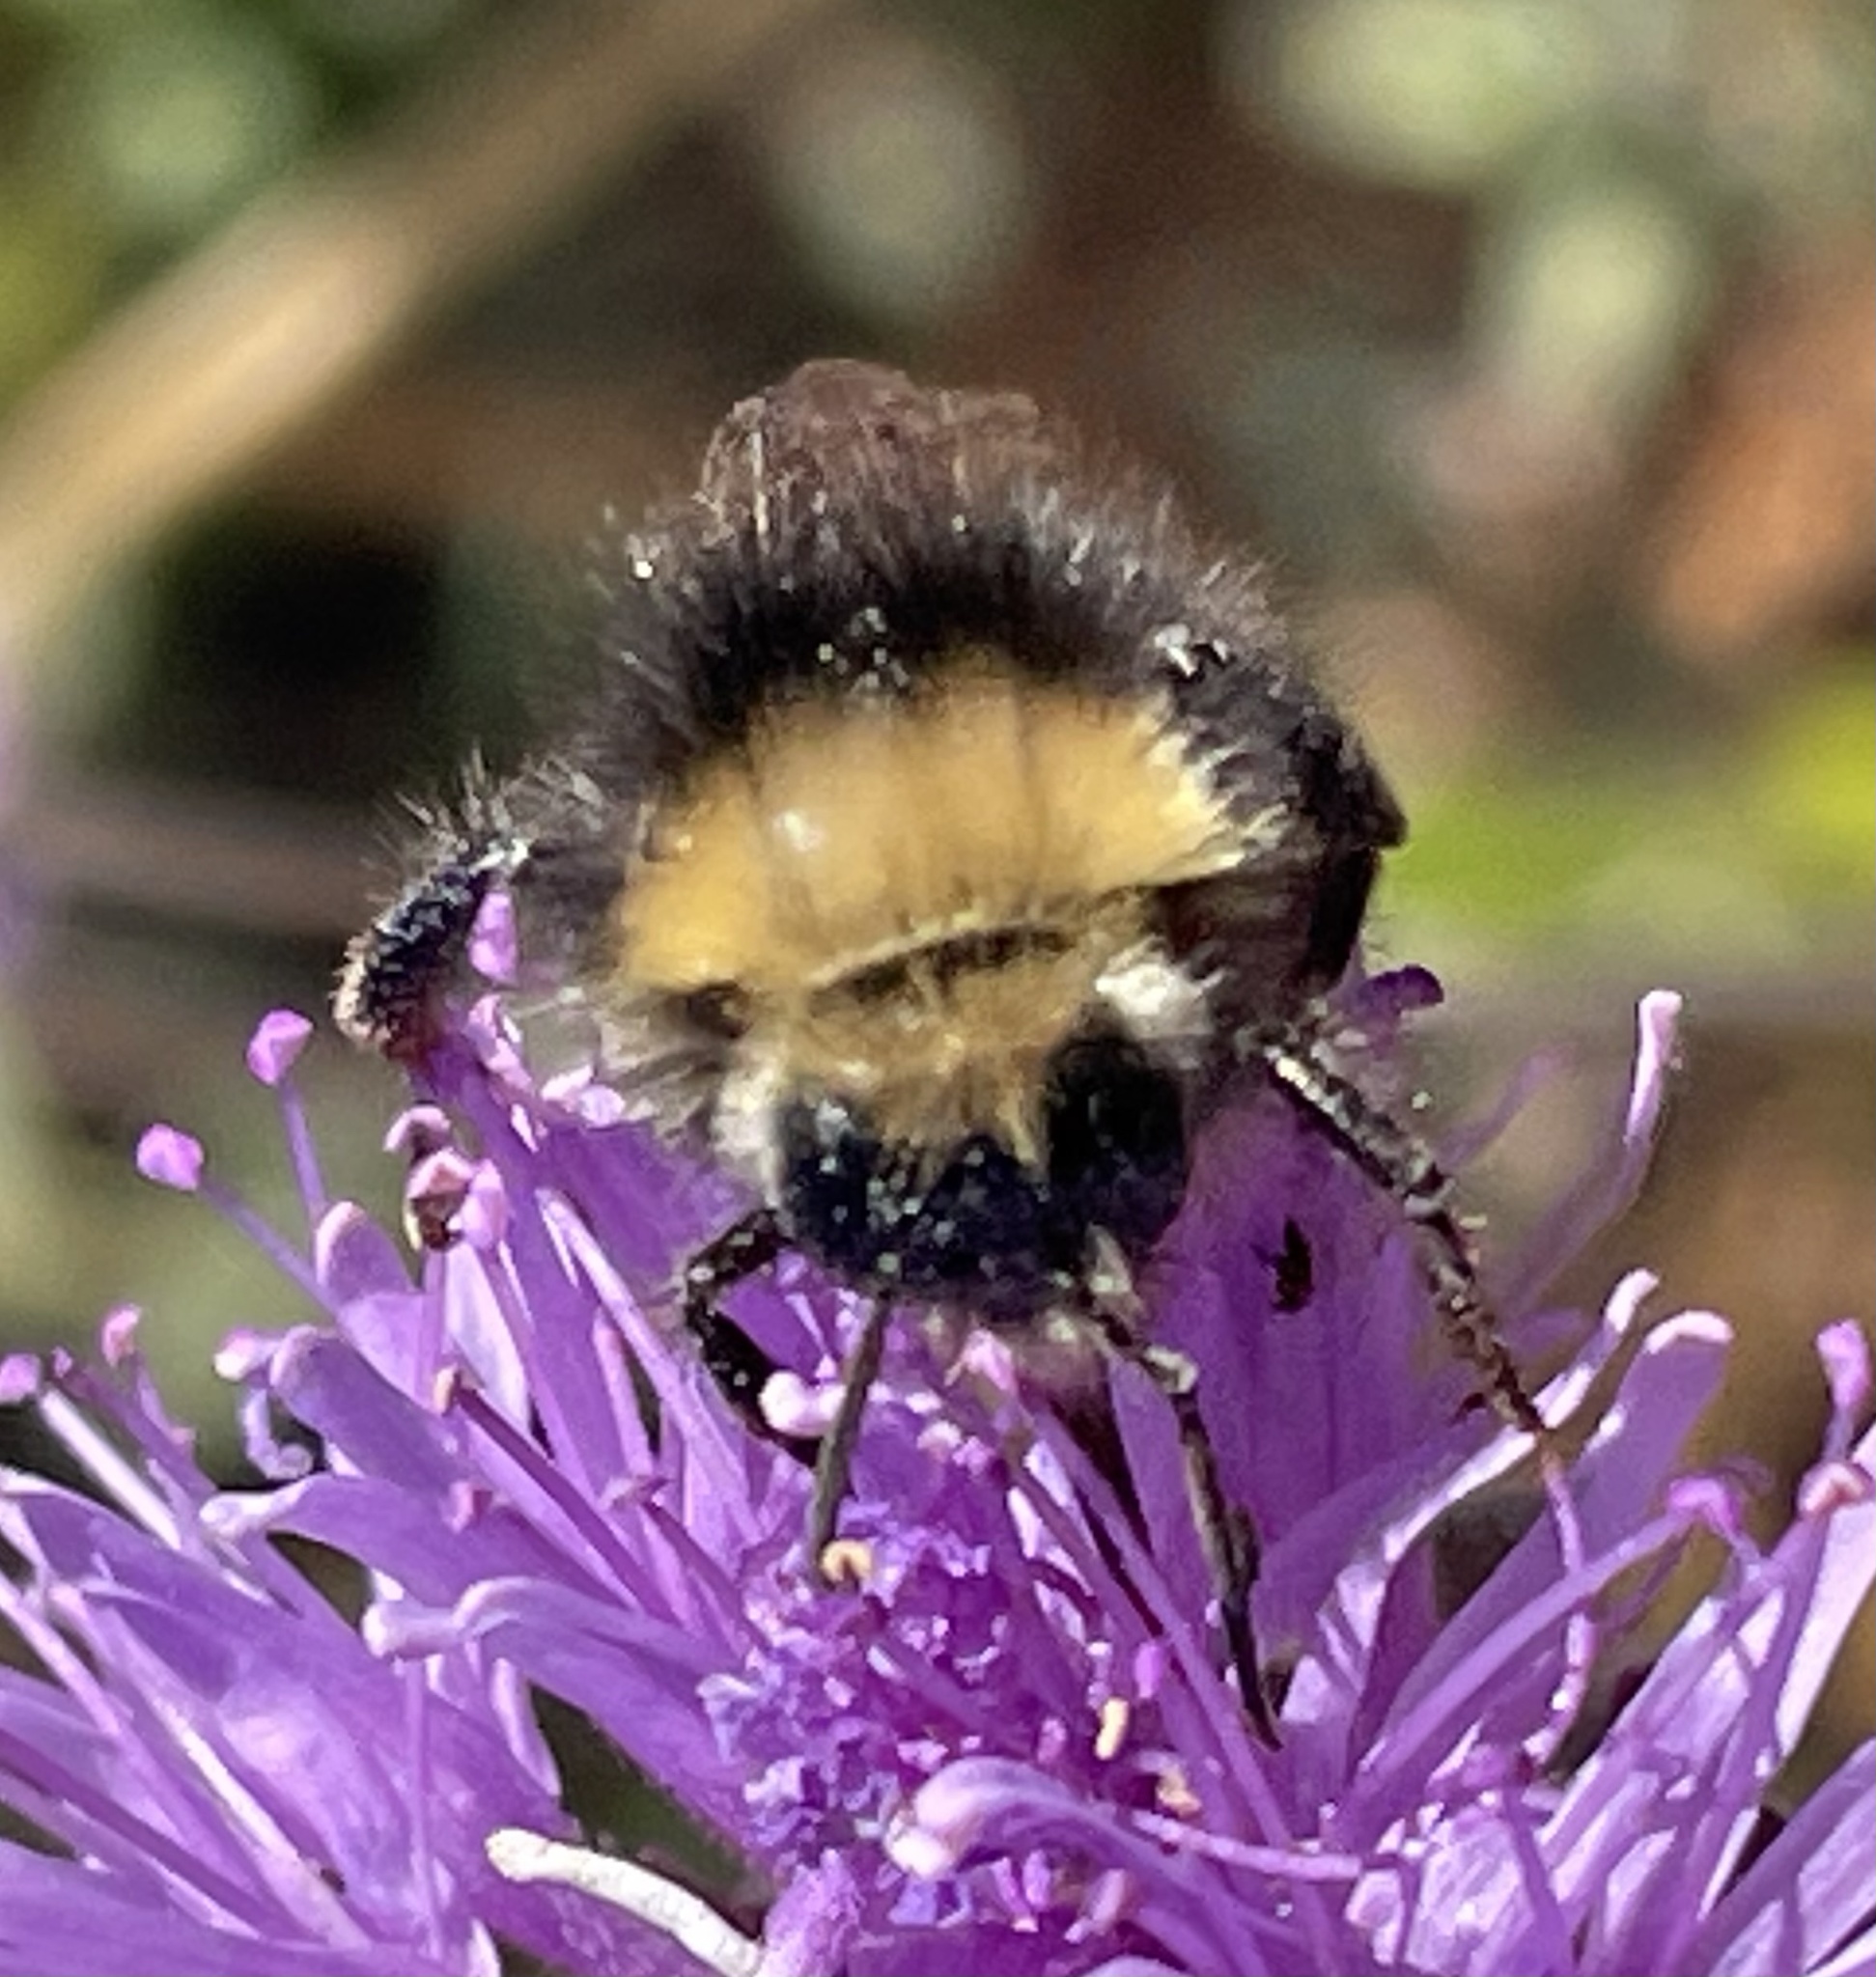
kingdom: Animalia
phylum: Arthropoda
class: Insecta
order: Hymenoptera
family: Apidae
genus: Bombus
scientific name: Bombus vosnesenskii
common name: Vosnesensky bumble bee
